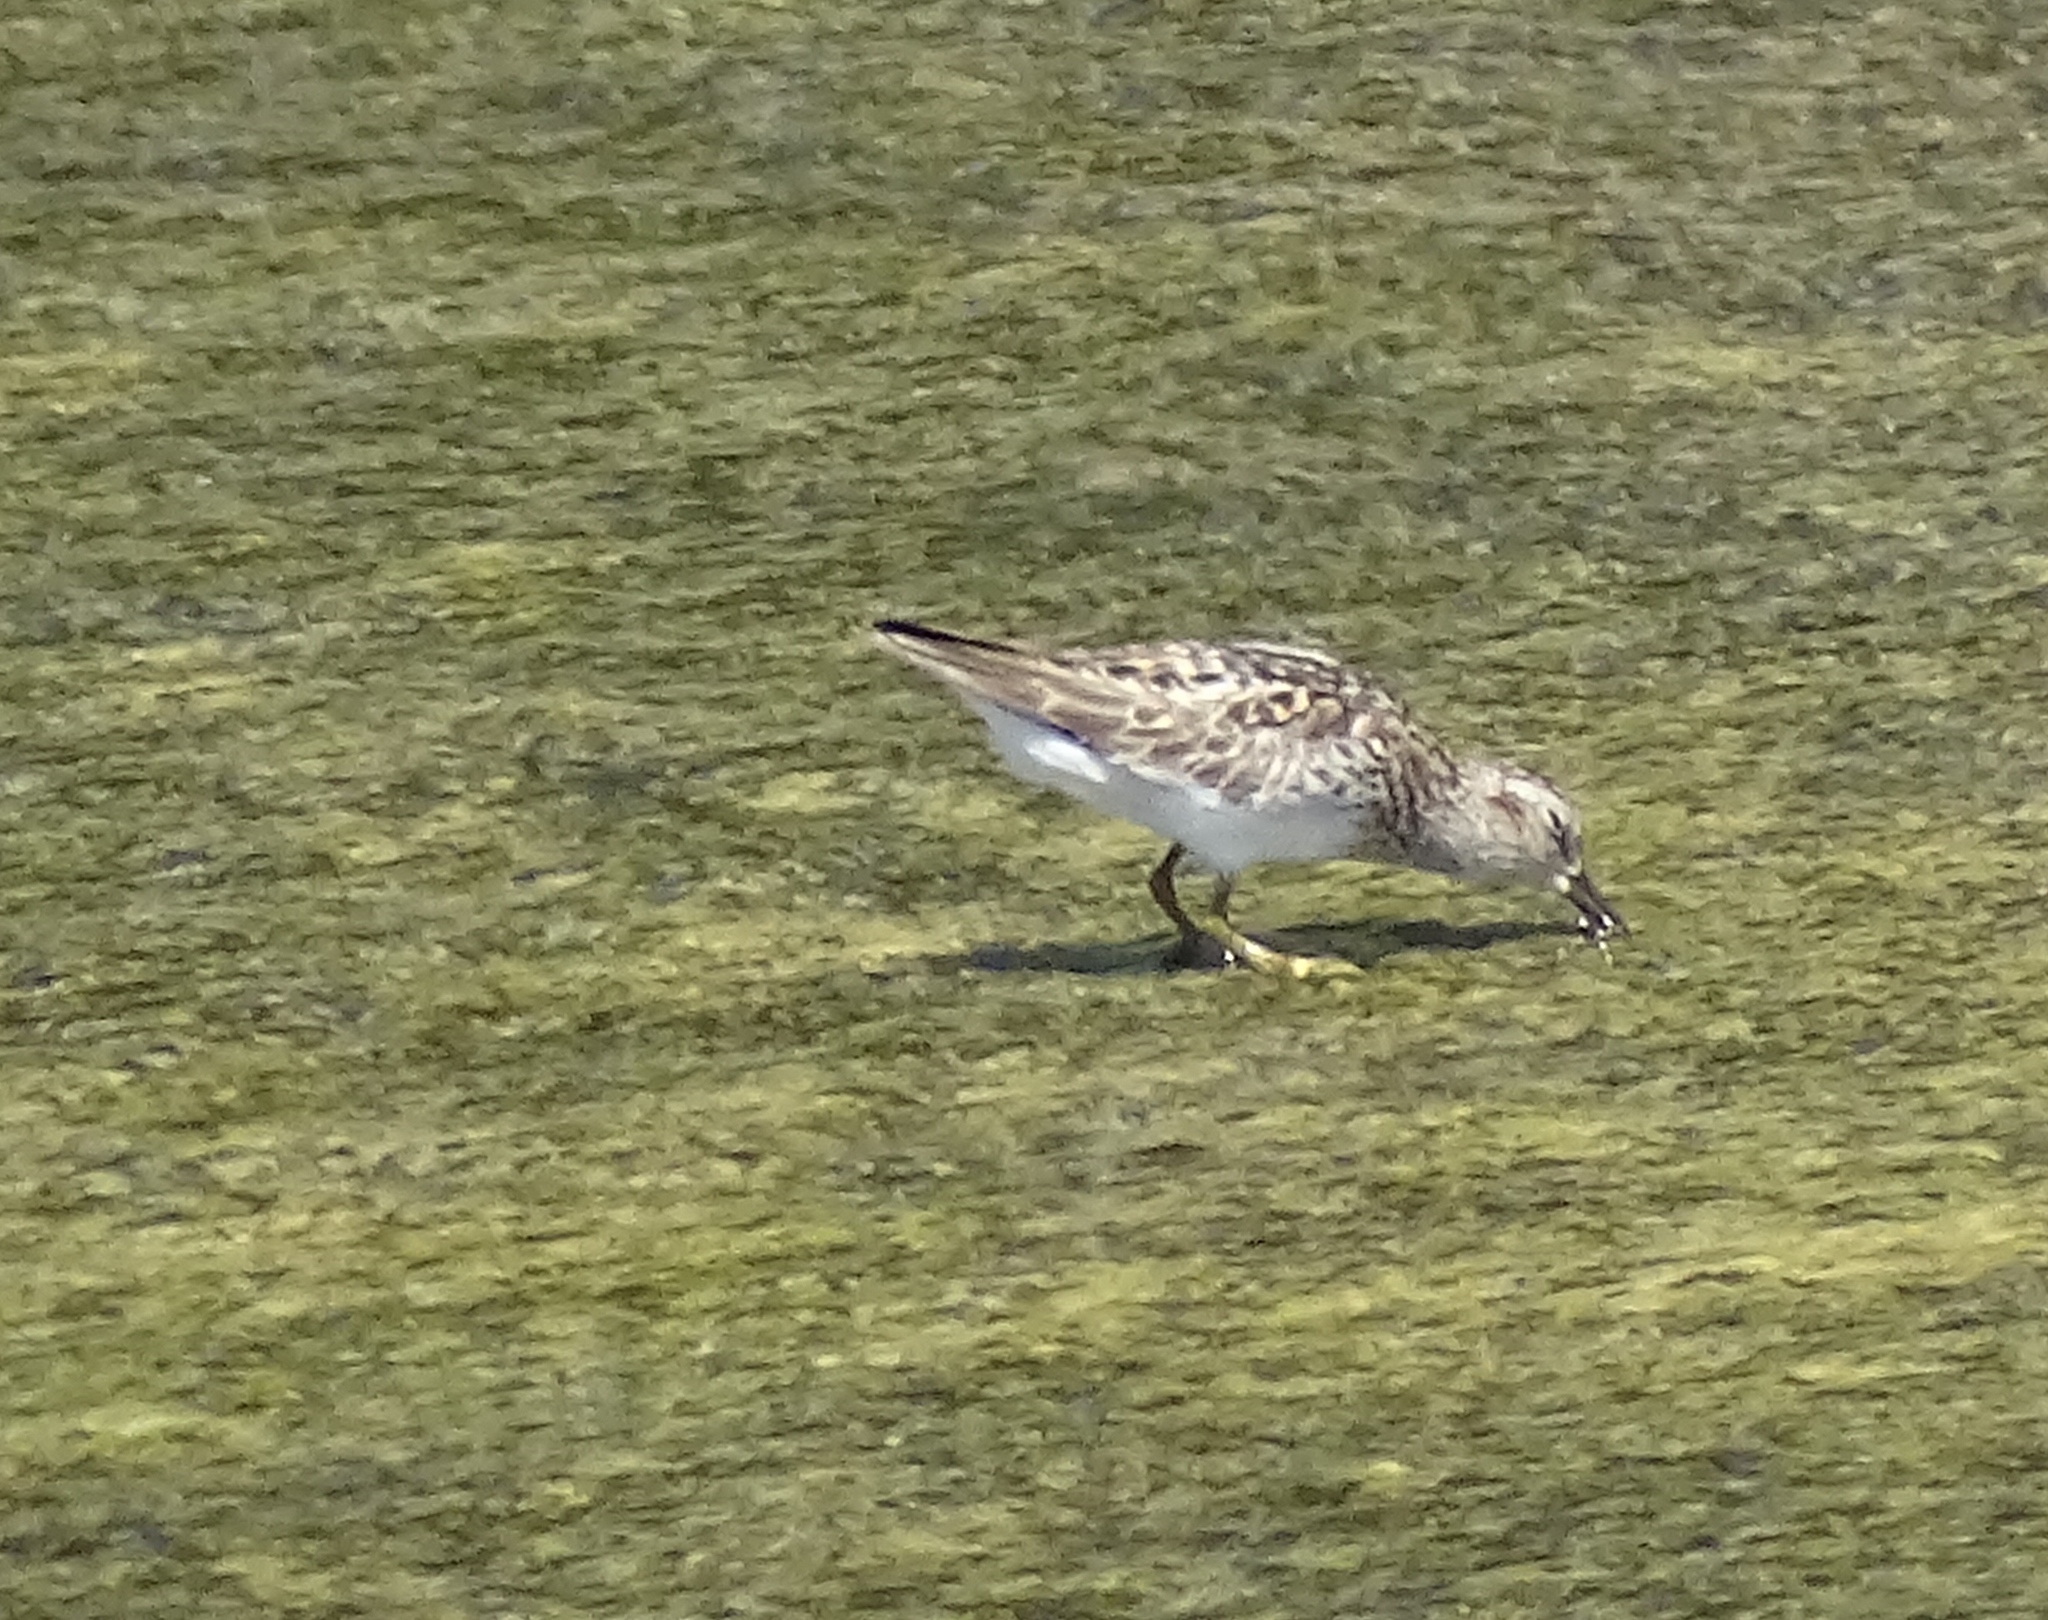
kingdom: Animalia
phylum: Chordata
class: Aves
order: Charadriiformes
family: Scolopacidae
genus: Calidris
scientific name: Calidris minutilla
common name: Least sandpiper
